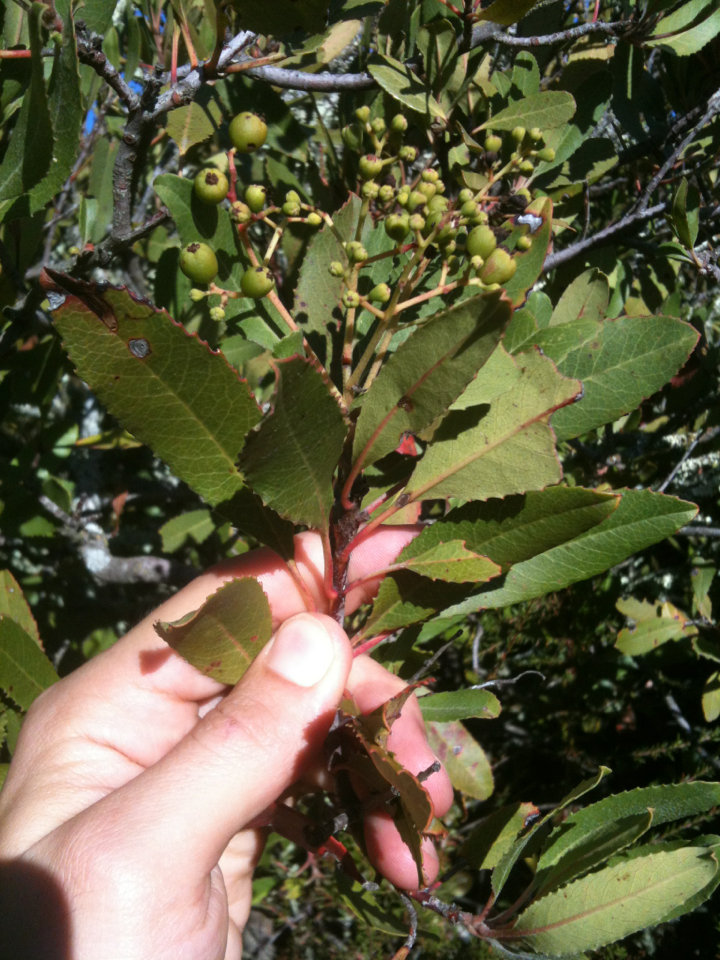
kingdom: Plantae
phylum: Tracheophyta
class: Magnoliopsida
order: Rosales
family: Rosaceae
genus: Heteromeles
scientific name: Heteromeles arbutifolia
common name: California-holly
